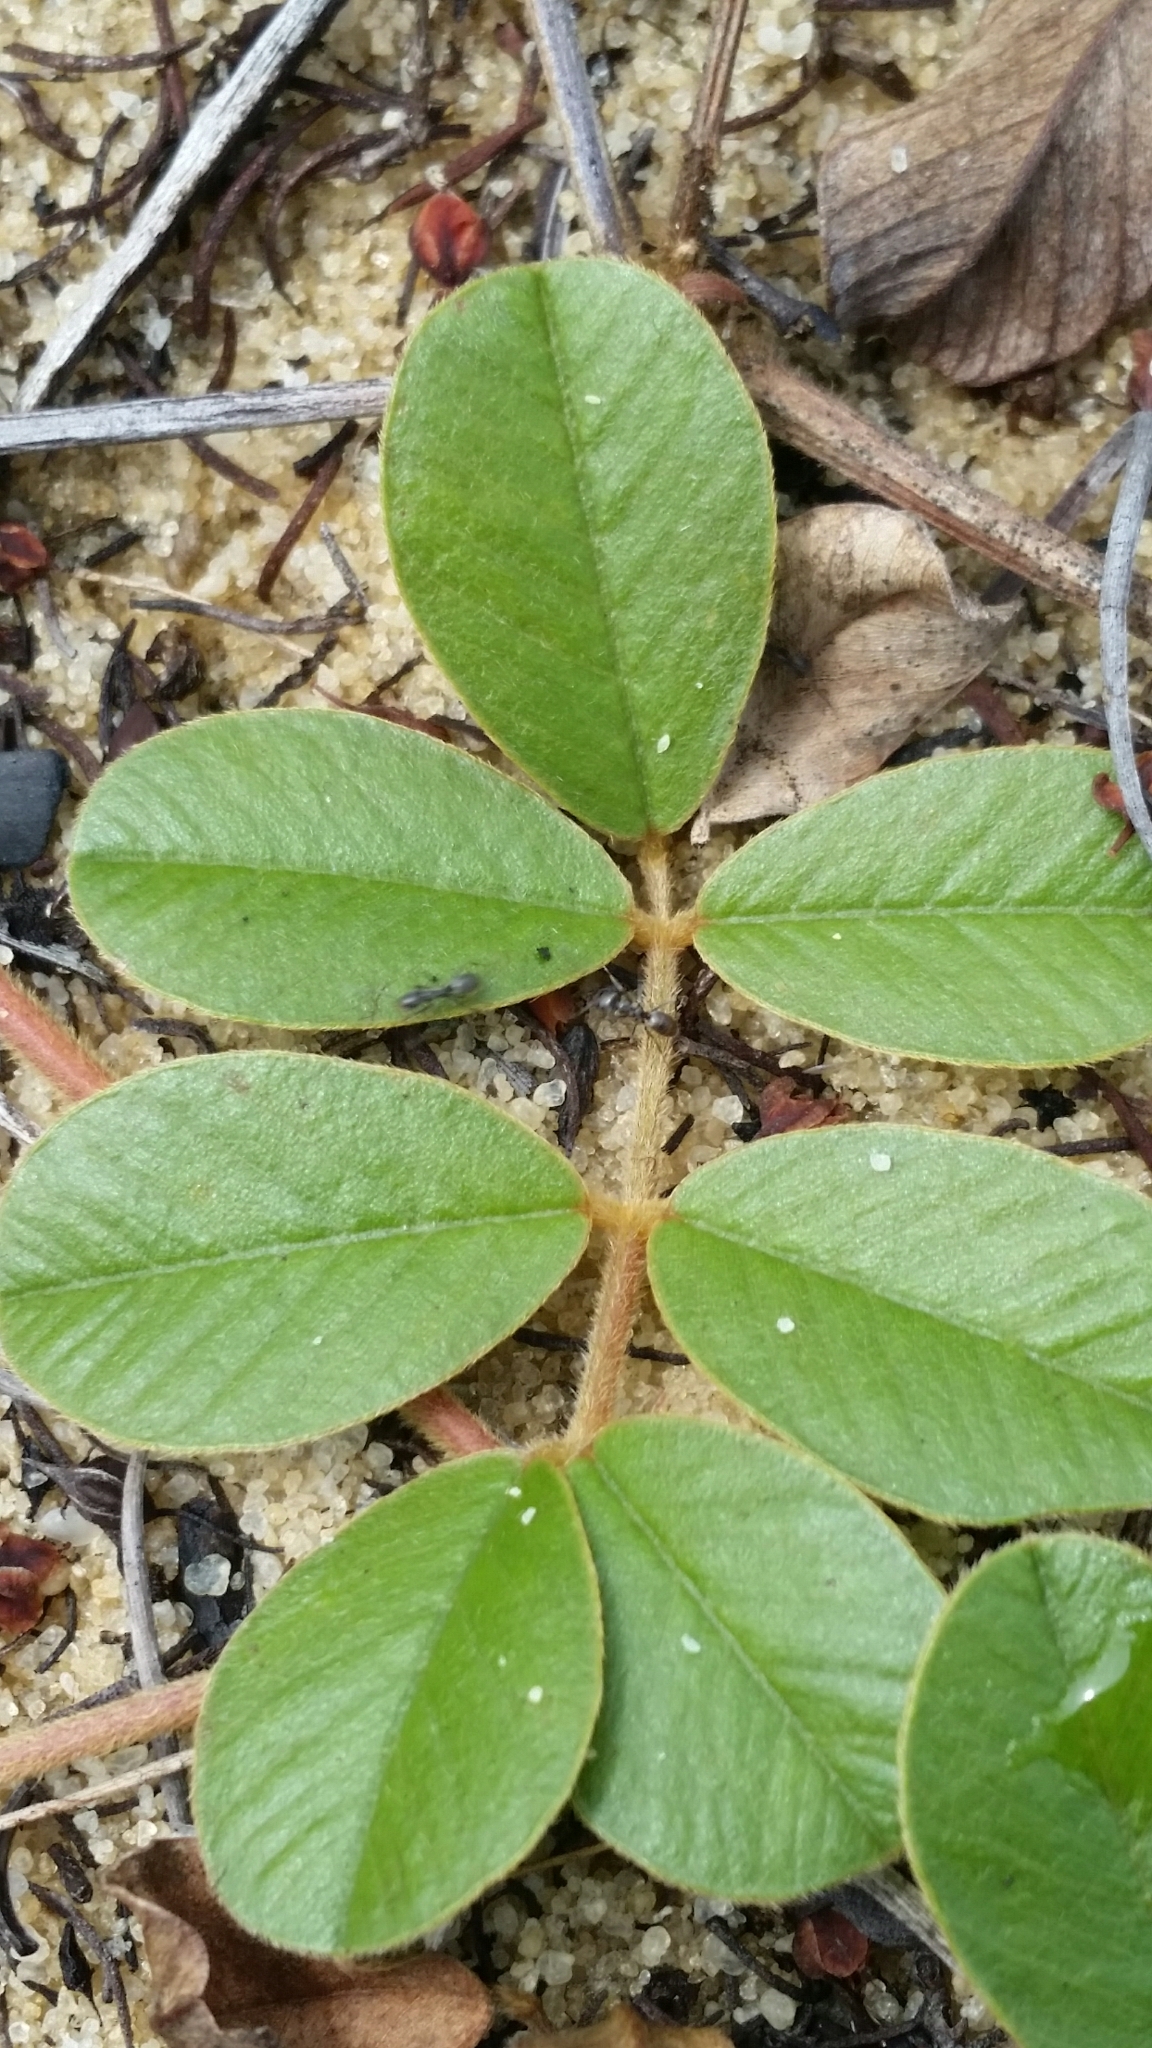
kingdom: Plantae
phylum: Tracheophyta
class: Magnoliopsida
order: Fabales
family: Fabaceae
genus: Tephrosia
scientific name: Tephrosia mysteriosa
